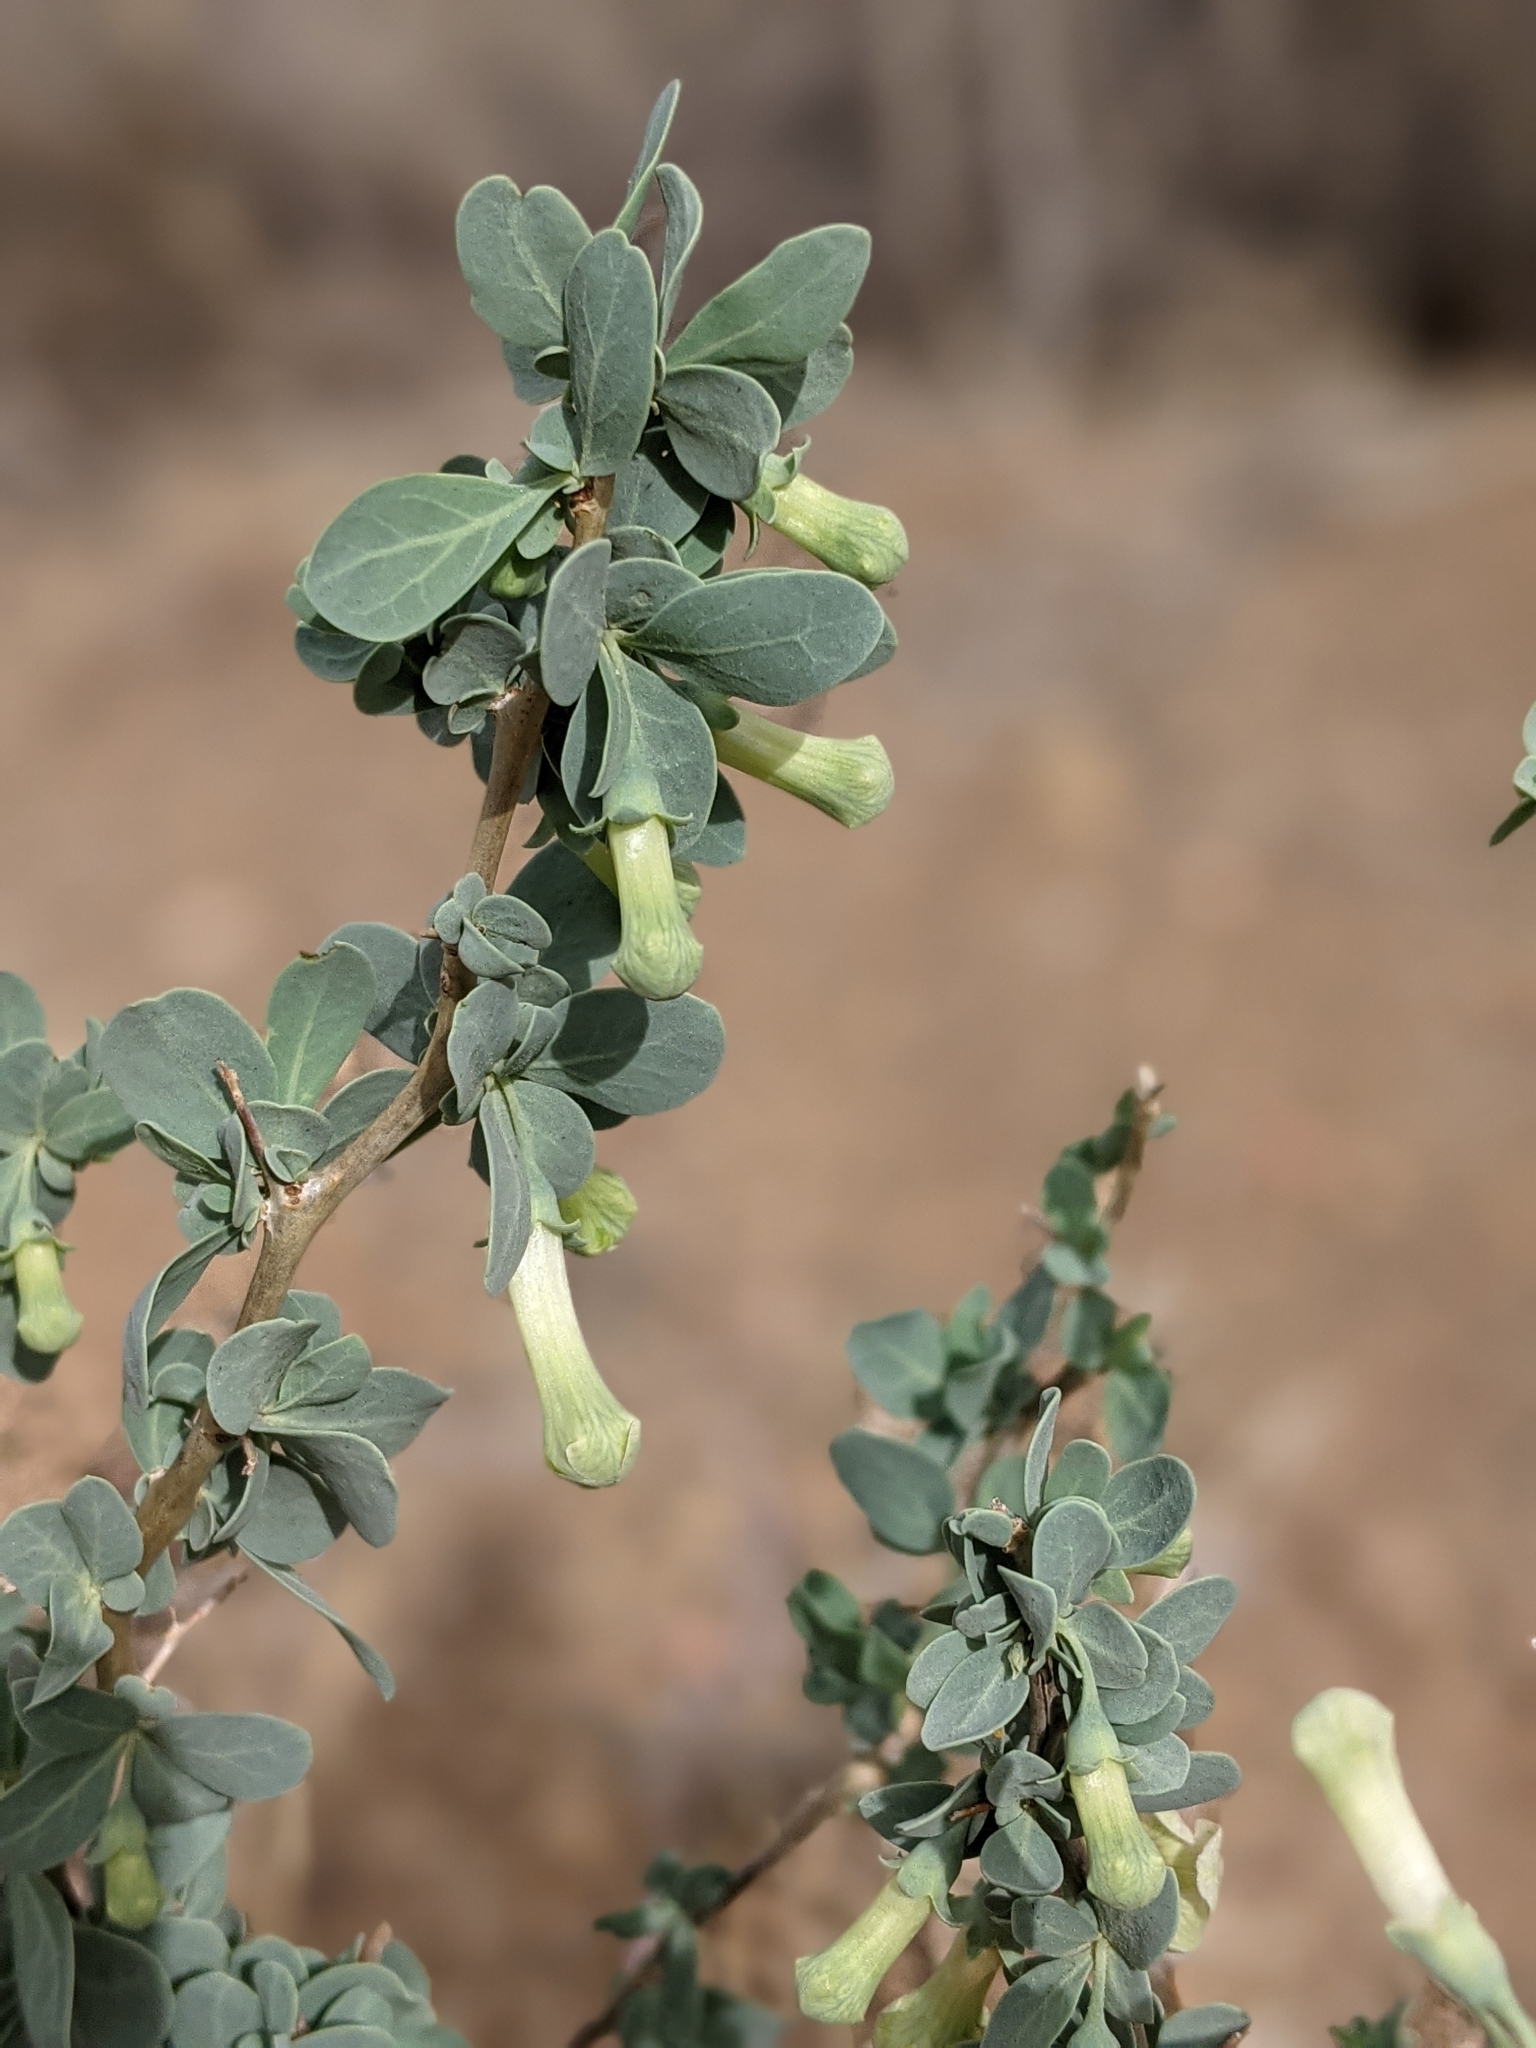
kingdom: Plantae
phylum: Tracheophyta
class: Magnoliopsida
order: Solanales
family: Solanaceae
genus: Lycium
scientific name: Lycium pallidum
